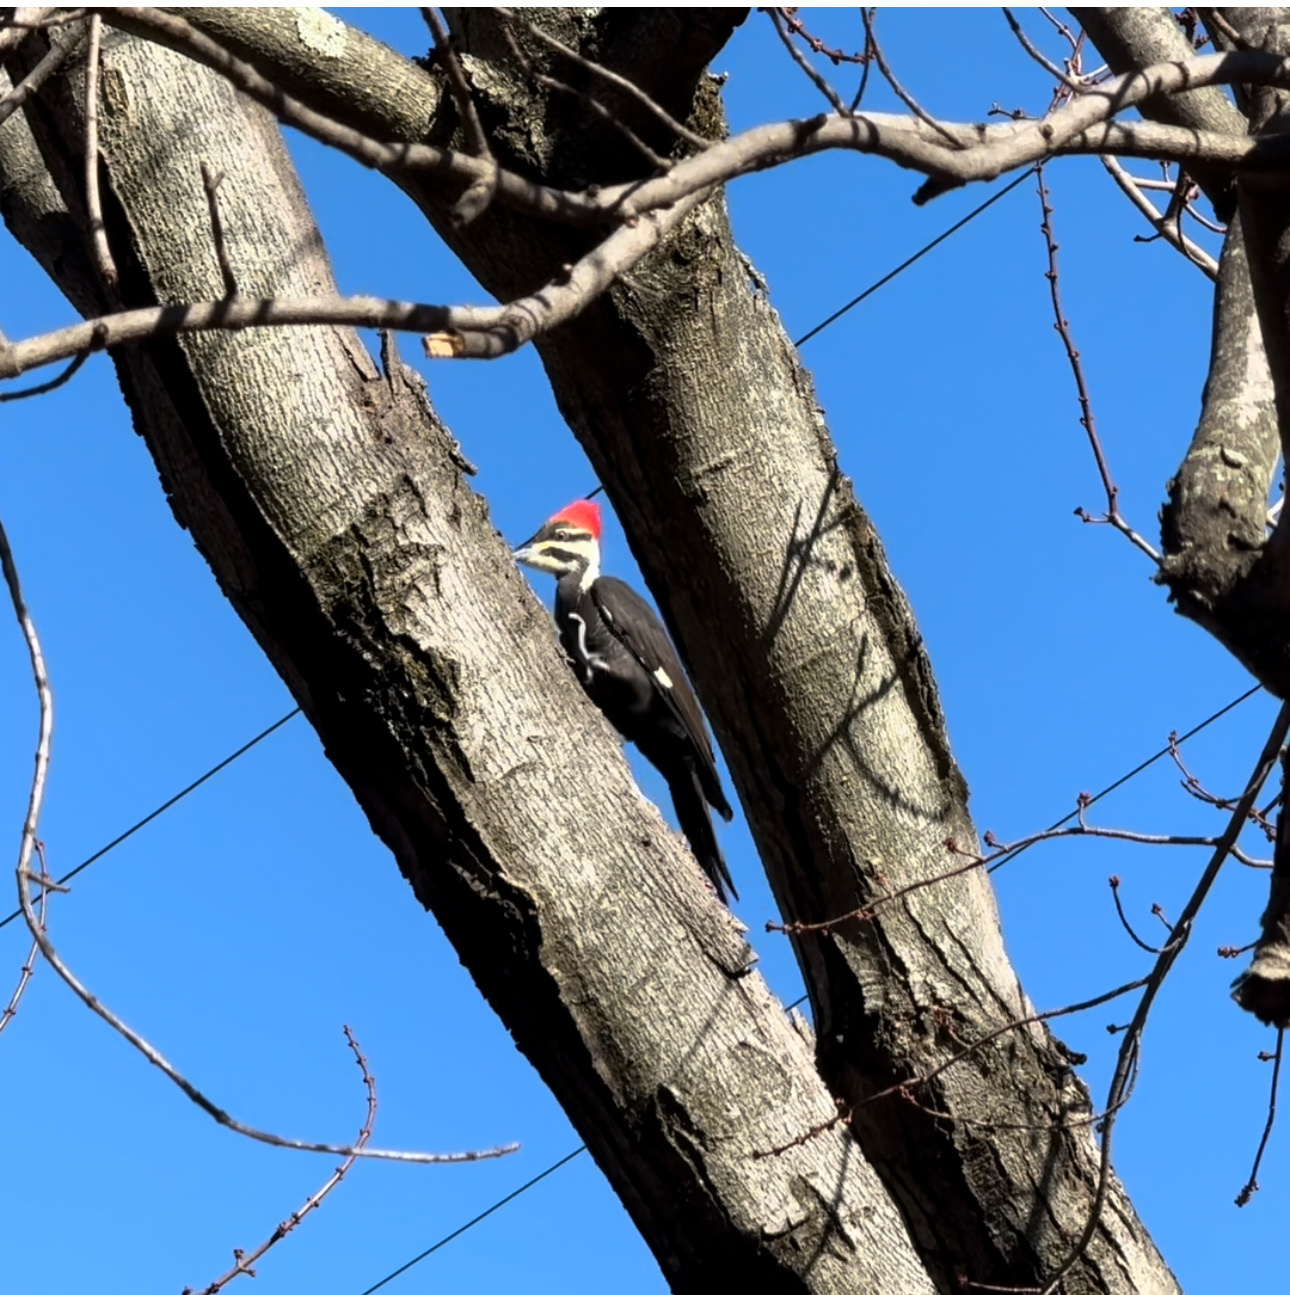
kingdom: Animalia
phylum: Chordata
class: Aves
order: Piciformes
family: Picidae
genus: Dryocopus
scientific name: Dryocopus pileatus
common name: Pileated woodpecker
